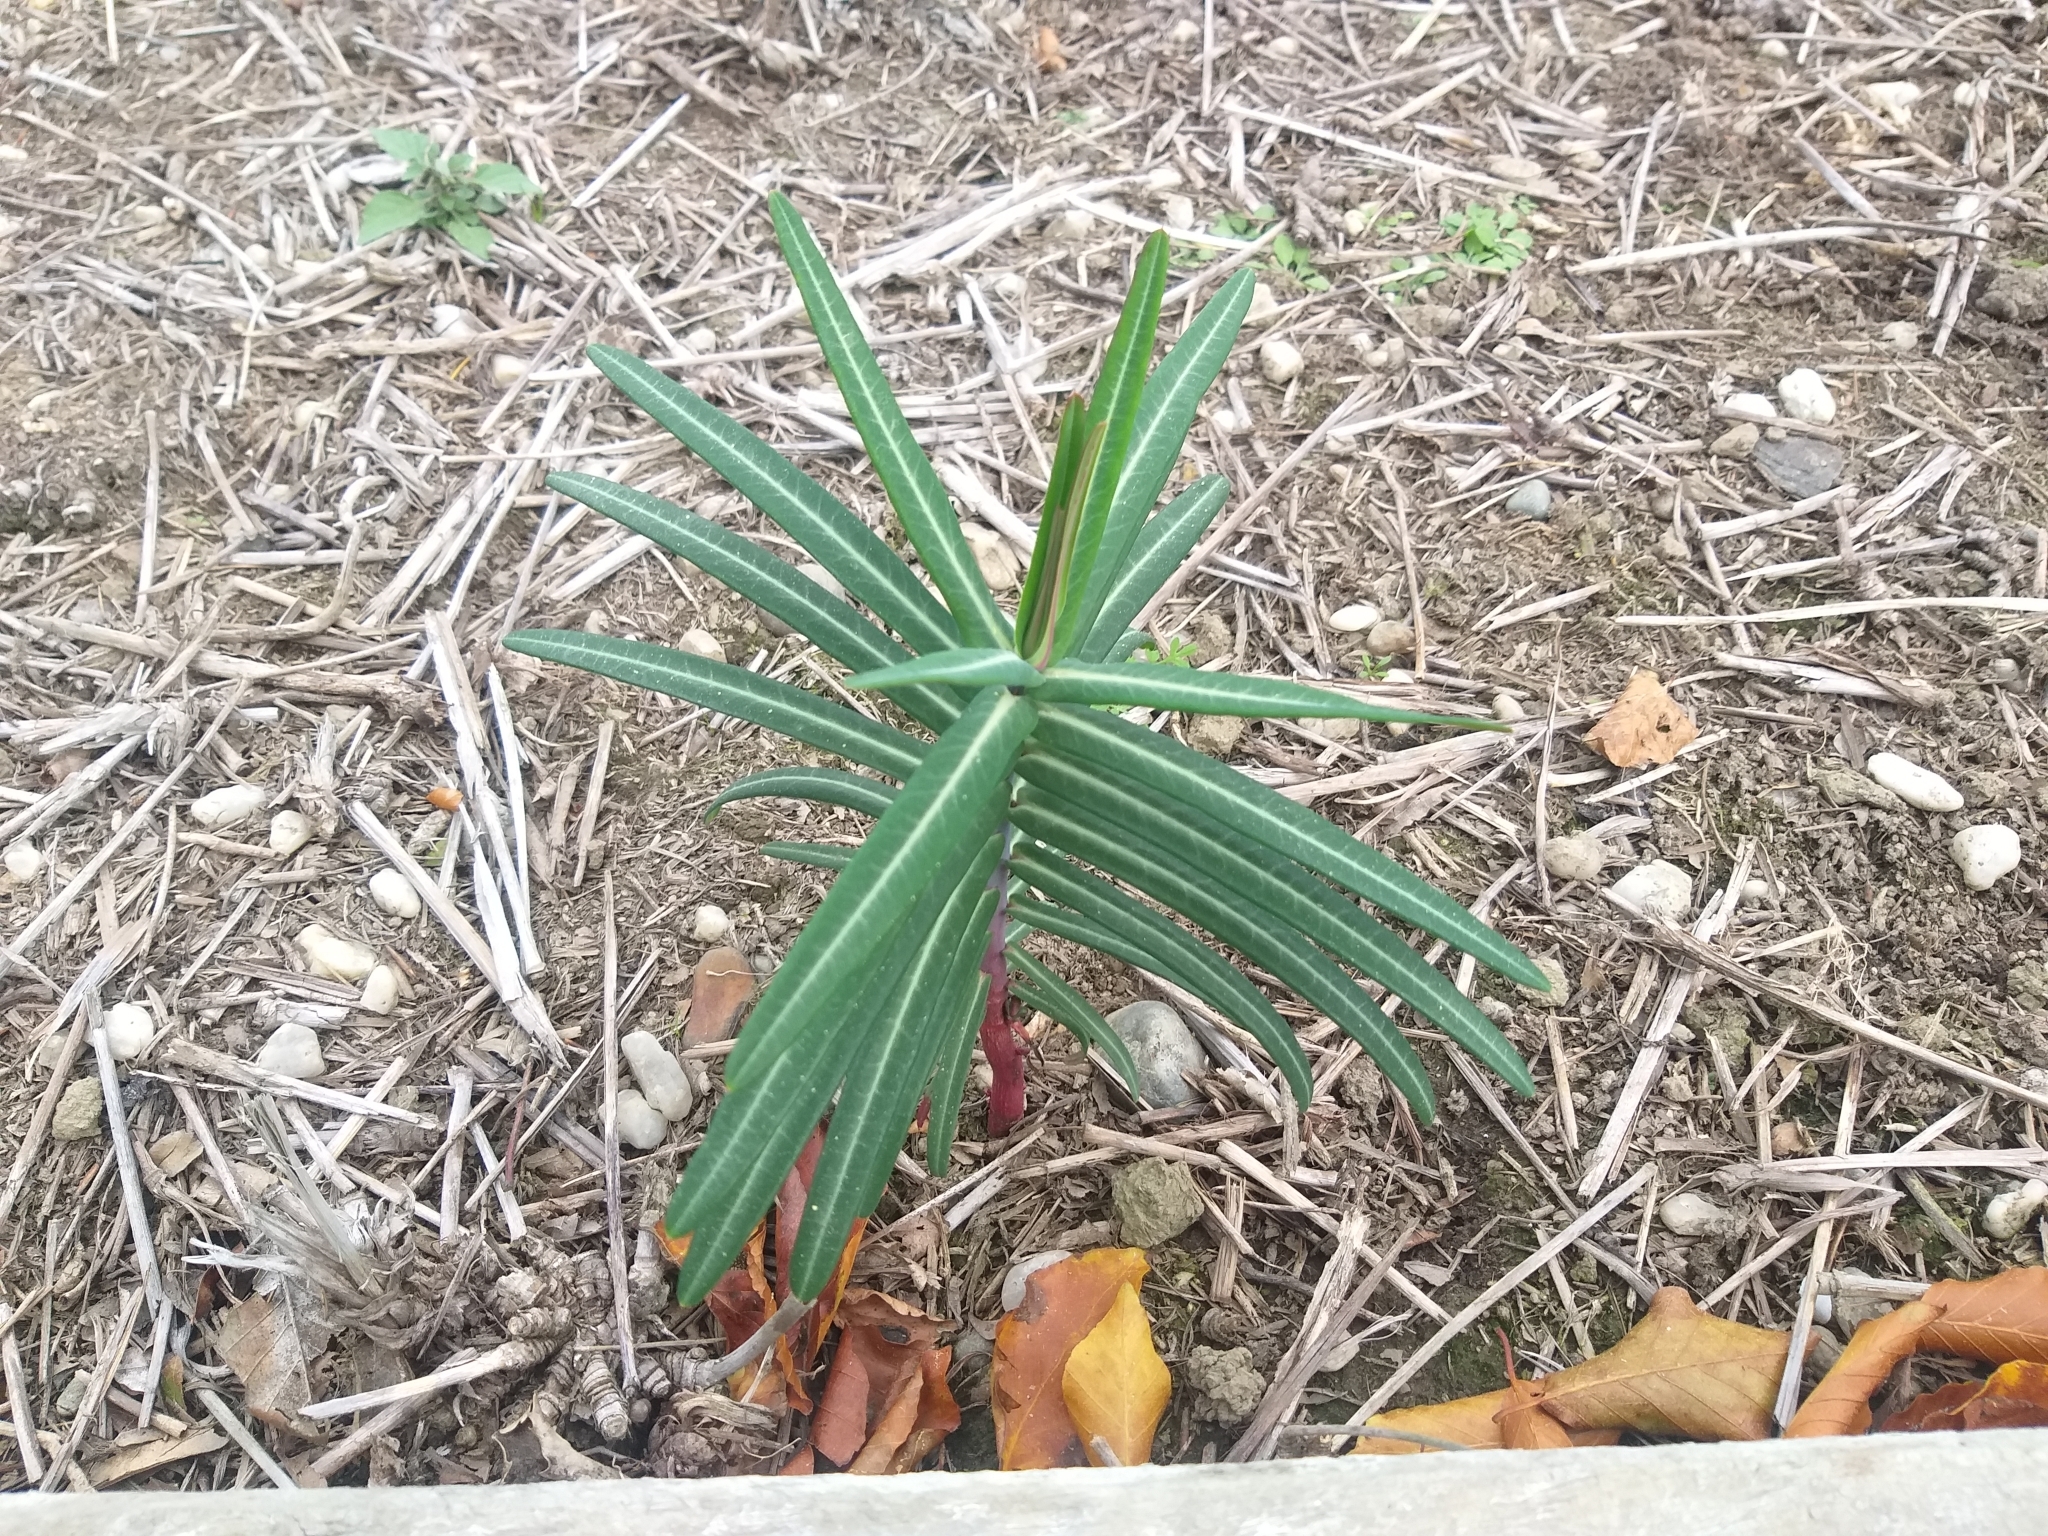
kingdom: Plantae
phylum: Tracheophyta
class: Magnoliopsida
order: Malpighiales
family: Euphorbiaceae
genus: Euphorbia
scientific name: Euphorbia lathyris
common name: Caper spurge
